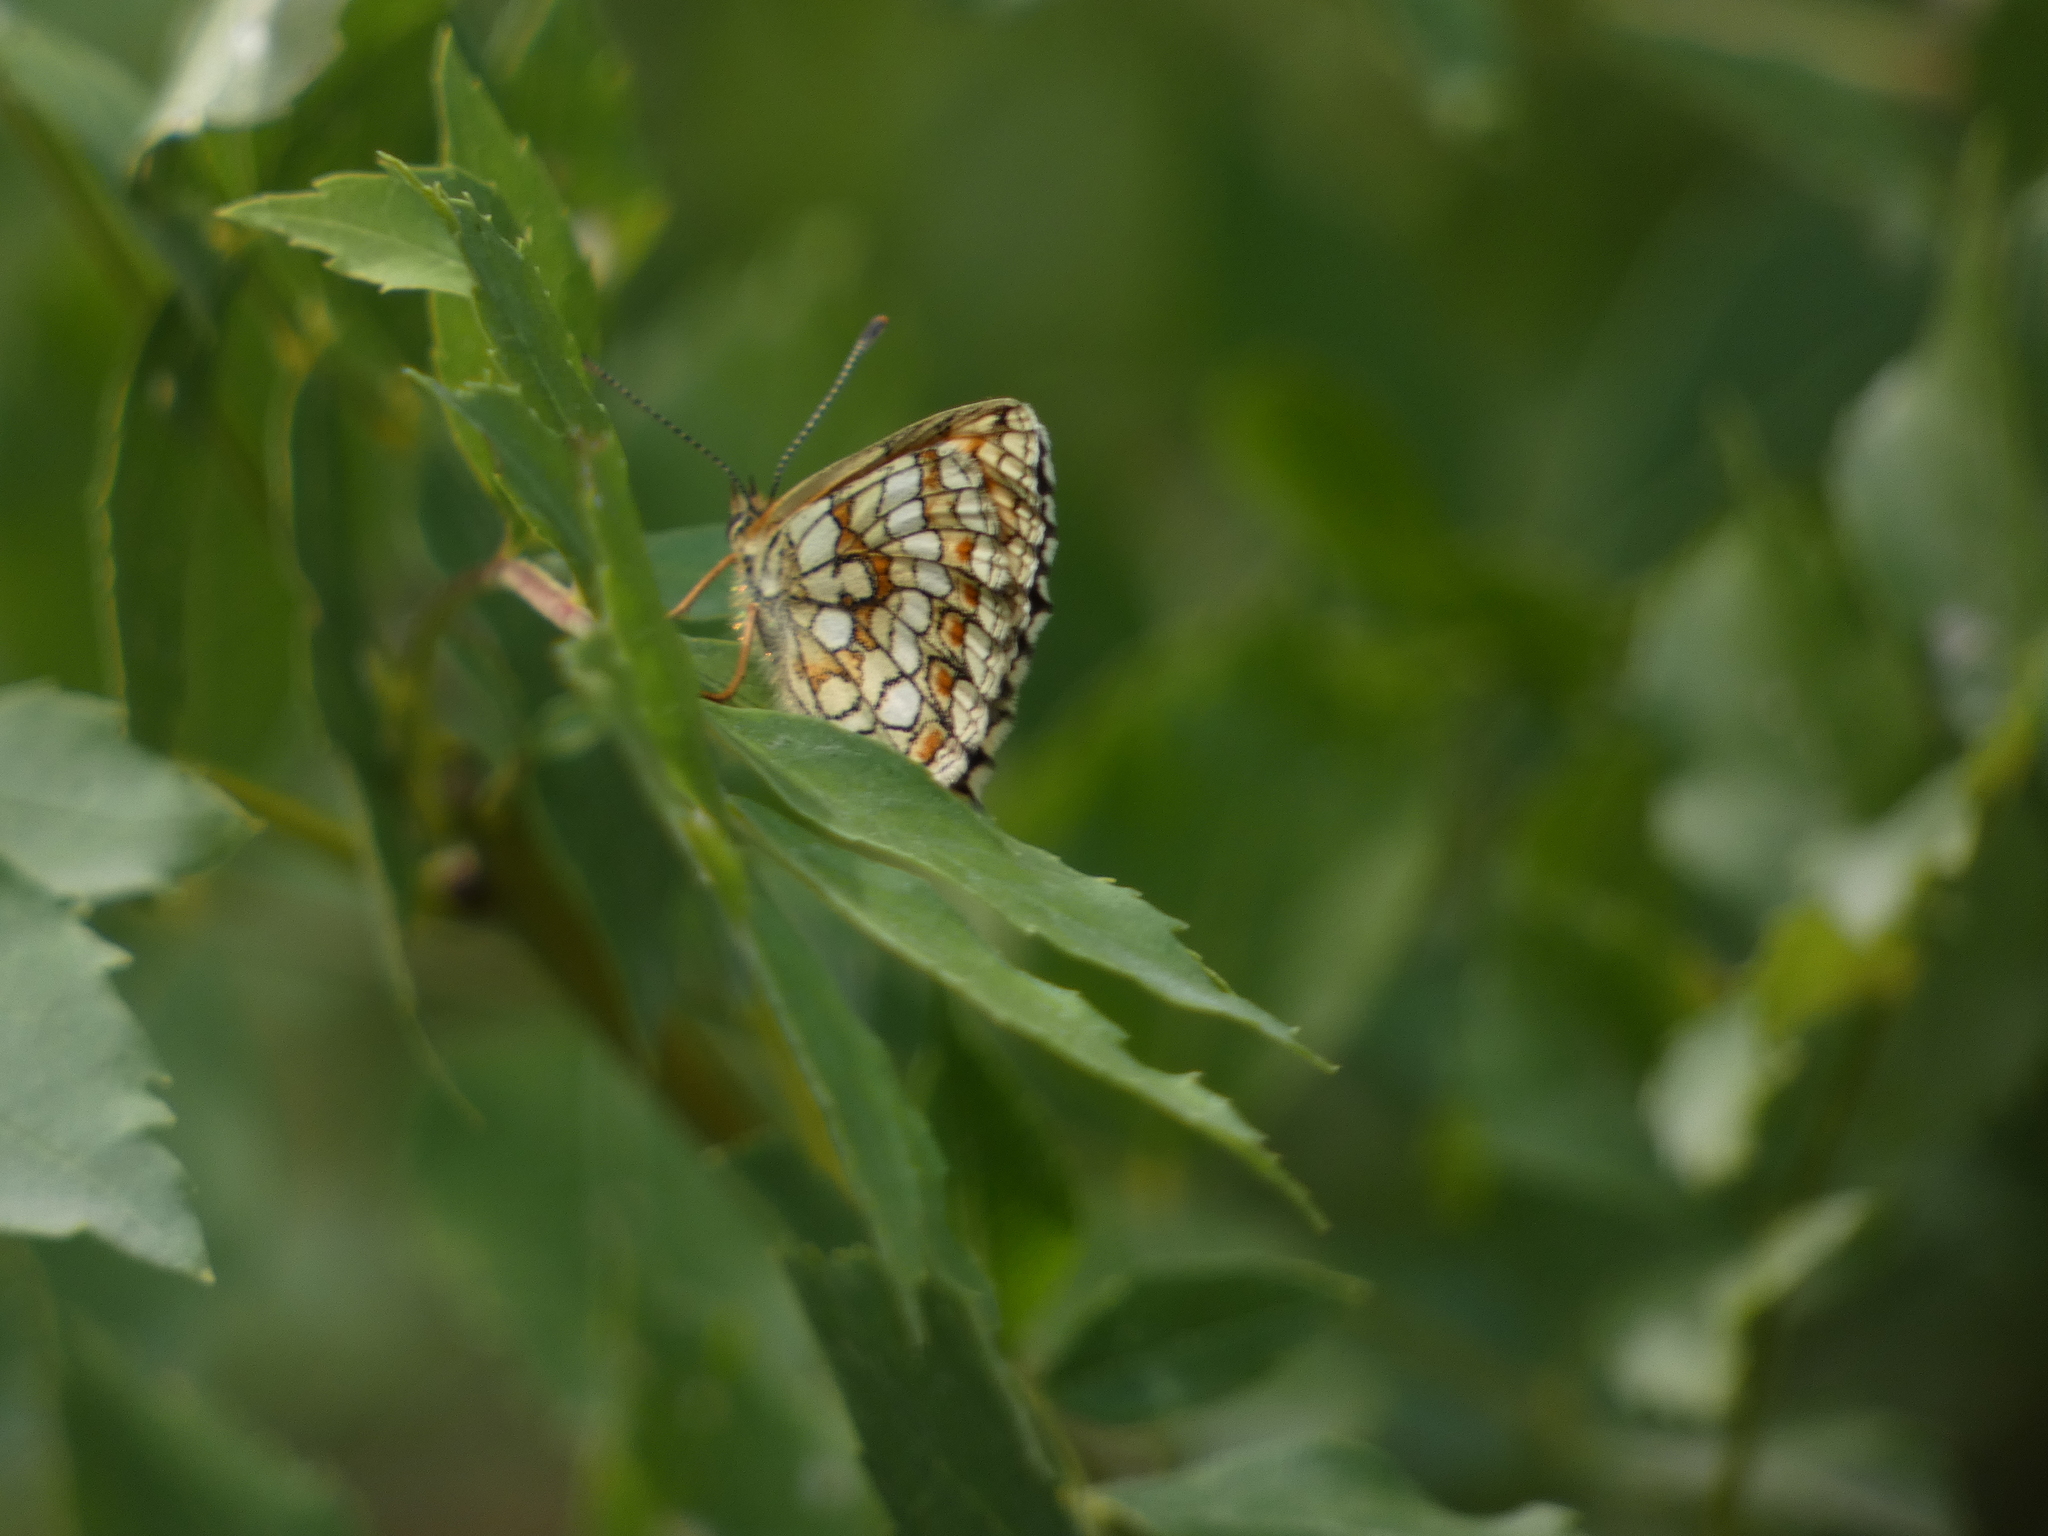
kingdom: Animalia
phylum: Arthropoda
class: Insecta
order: Lepidoptera
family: Nymphalidae
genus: Mellicta
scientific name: Mellicta athalia
